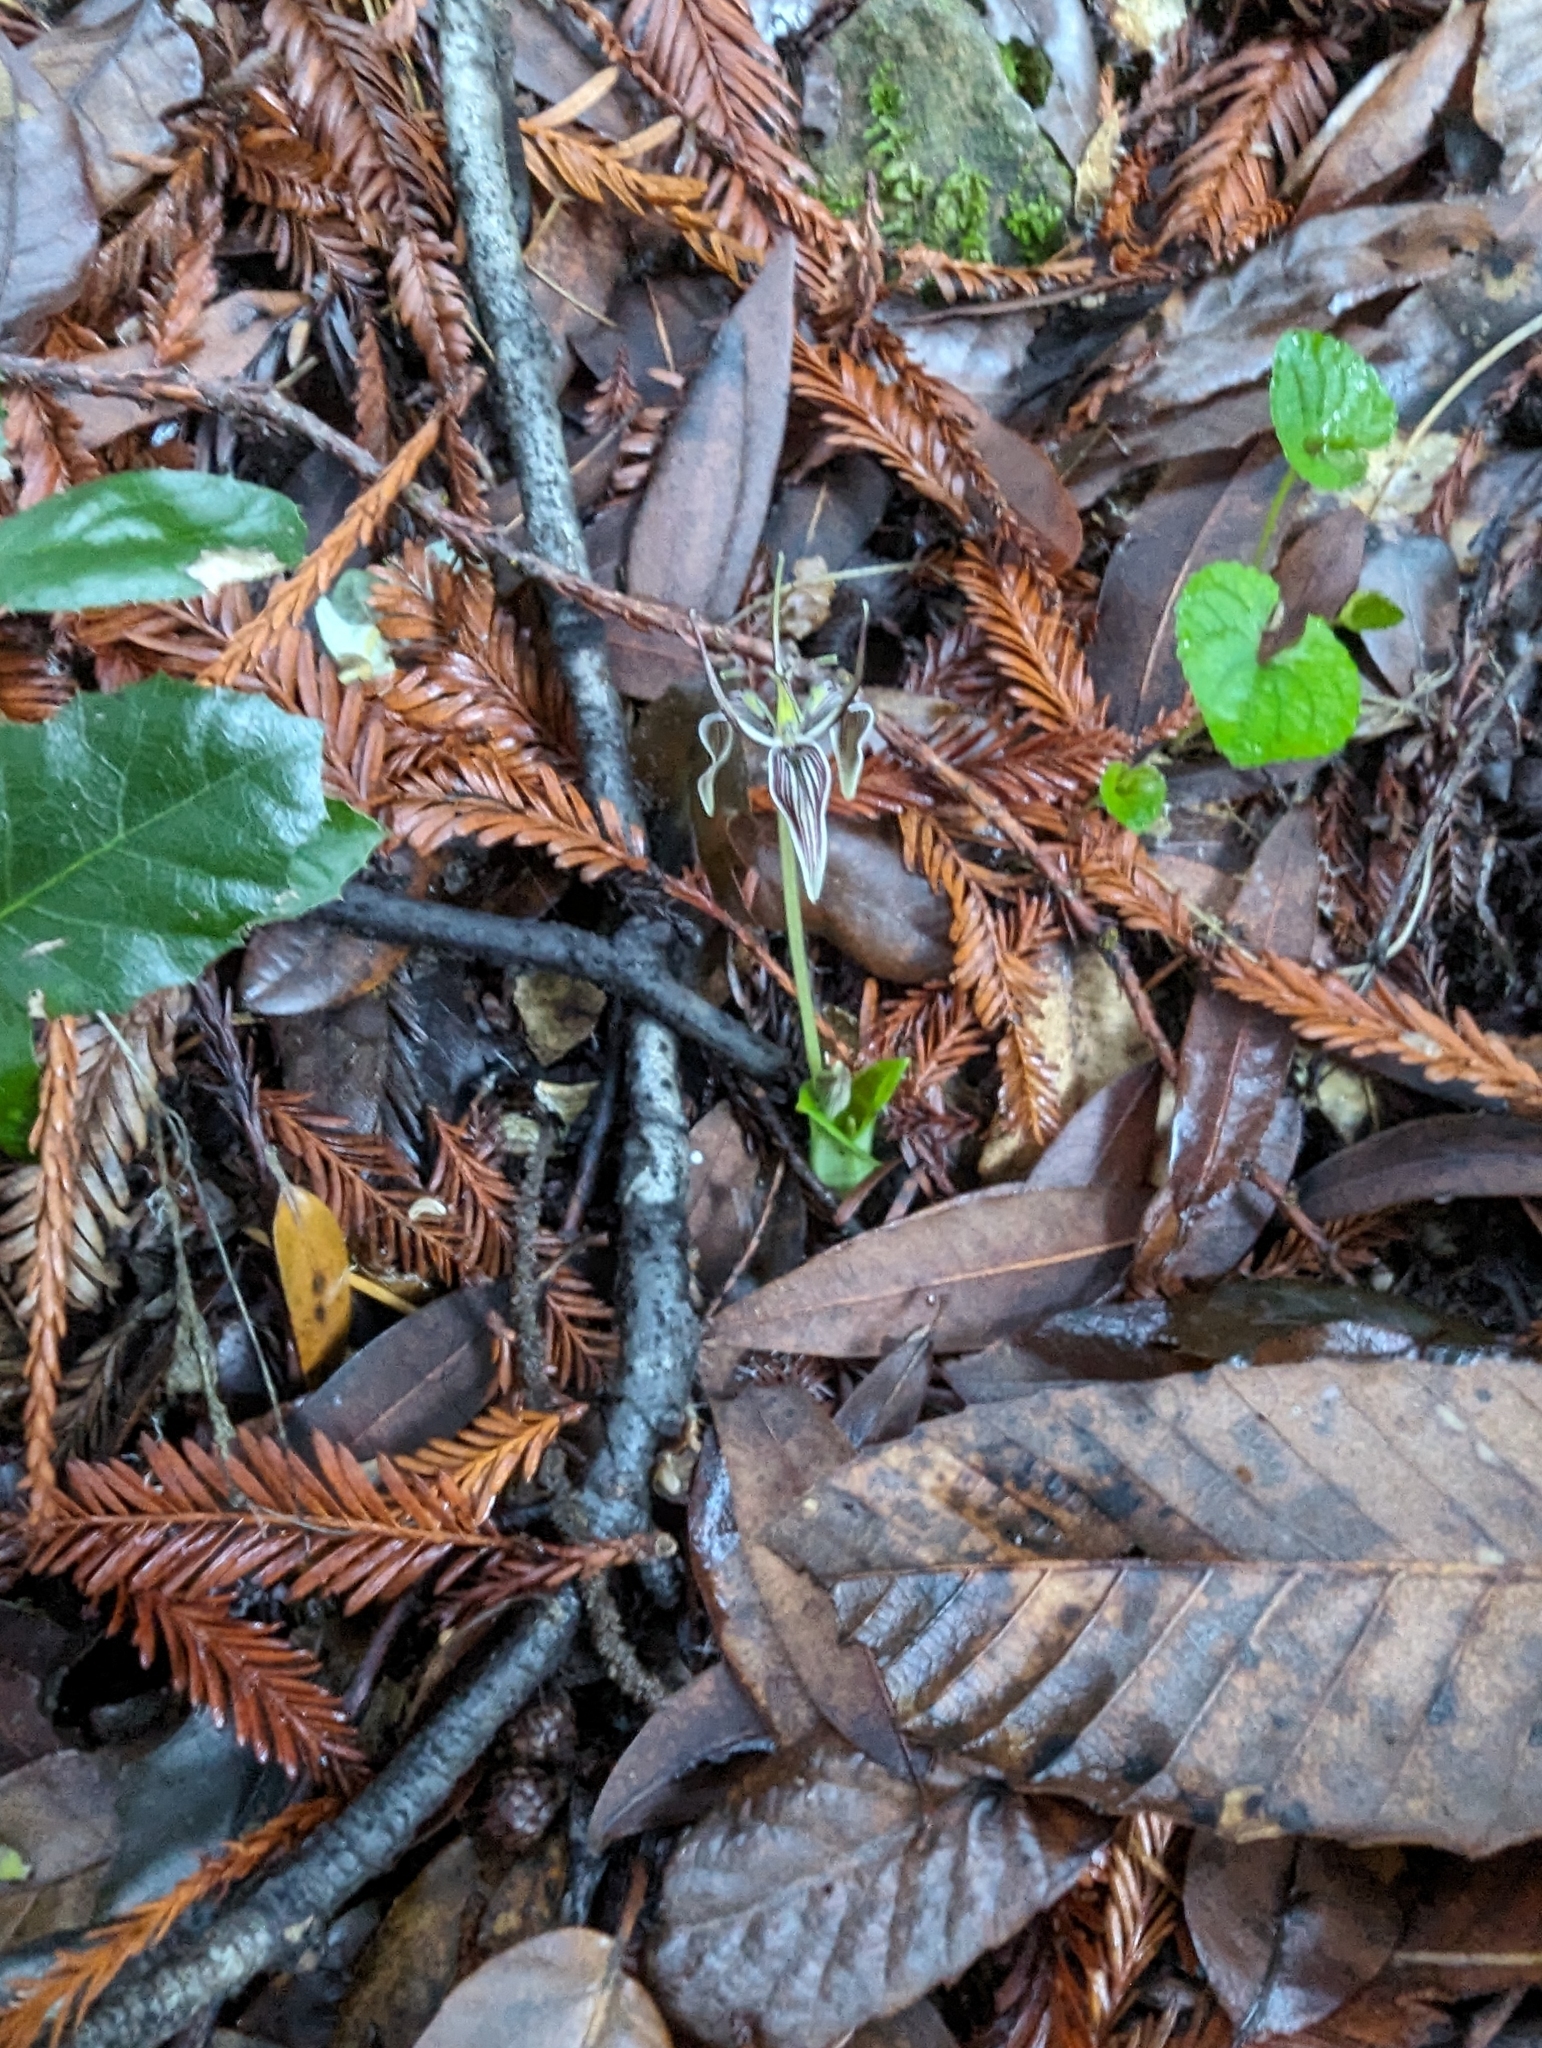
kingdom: Plantae
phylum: Tracheophyta
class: Liliopsida
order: Liliales
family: Liliaceae
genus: Scoliopus
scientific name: Scoliopus bigelovii
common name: Foetid adder's-tongue
